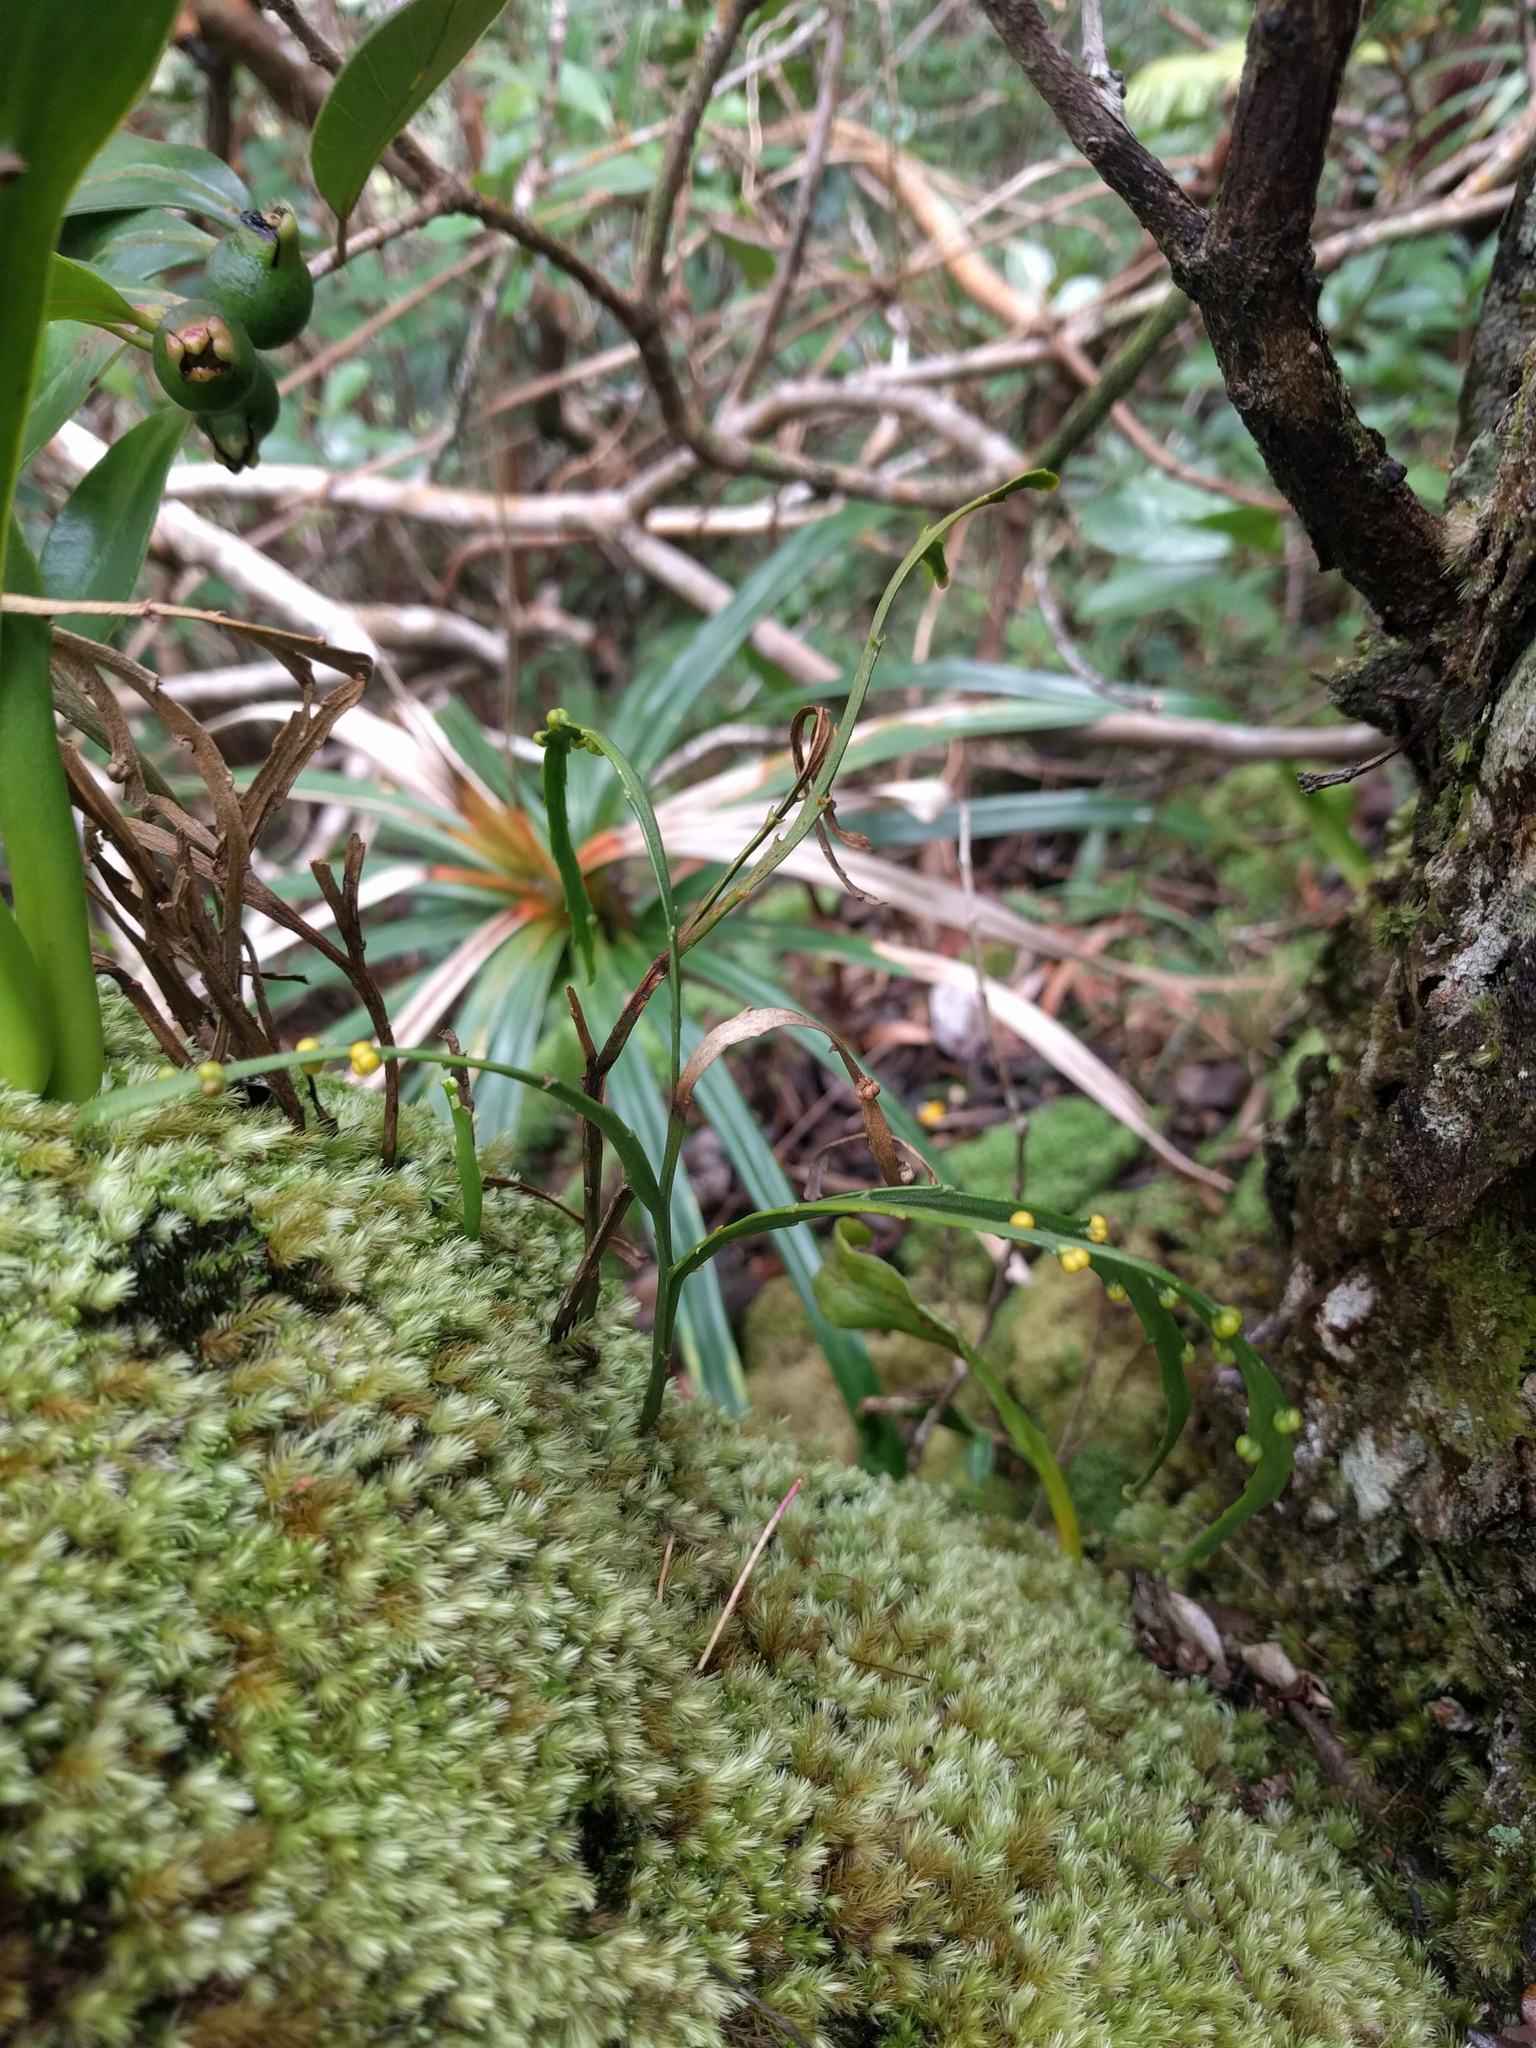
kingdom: Plantae
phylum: Tracheophyta
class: Polypodiopsida
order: Psilotales
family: Psilotaceae
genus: Psilotum
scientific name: Psilotum complanatum
